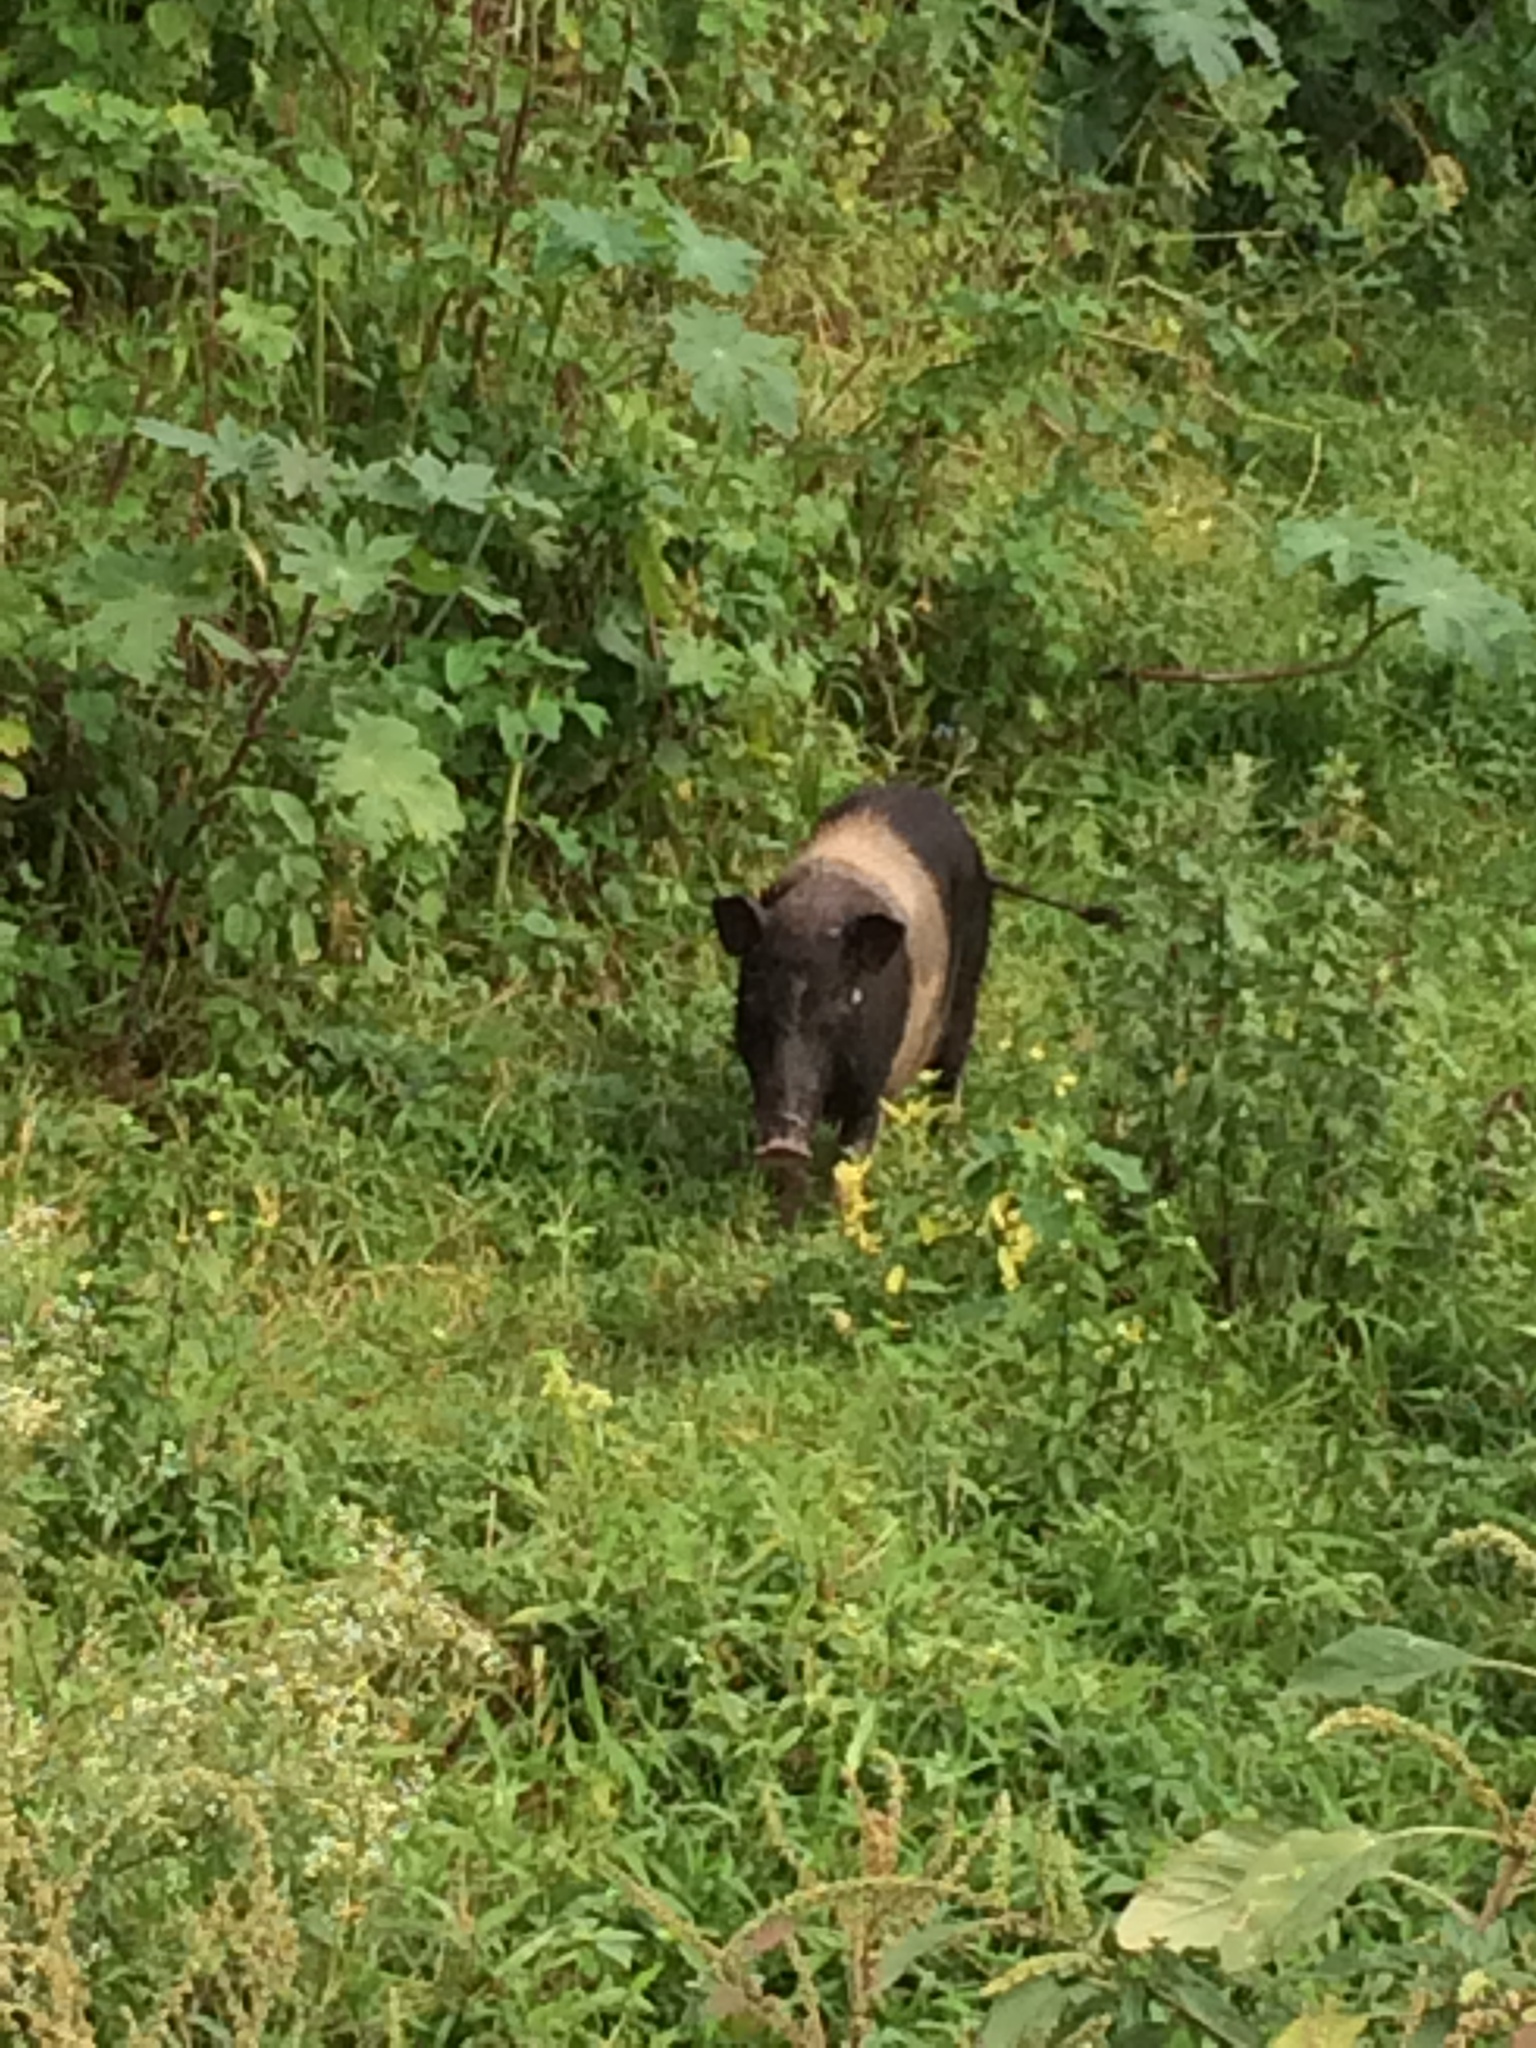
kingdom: Animalia
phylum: Chordata
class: Mammalia
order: Artiodactyla
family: Suidae
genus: Sus
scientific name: Sus scrofa
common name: Wild boar
